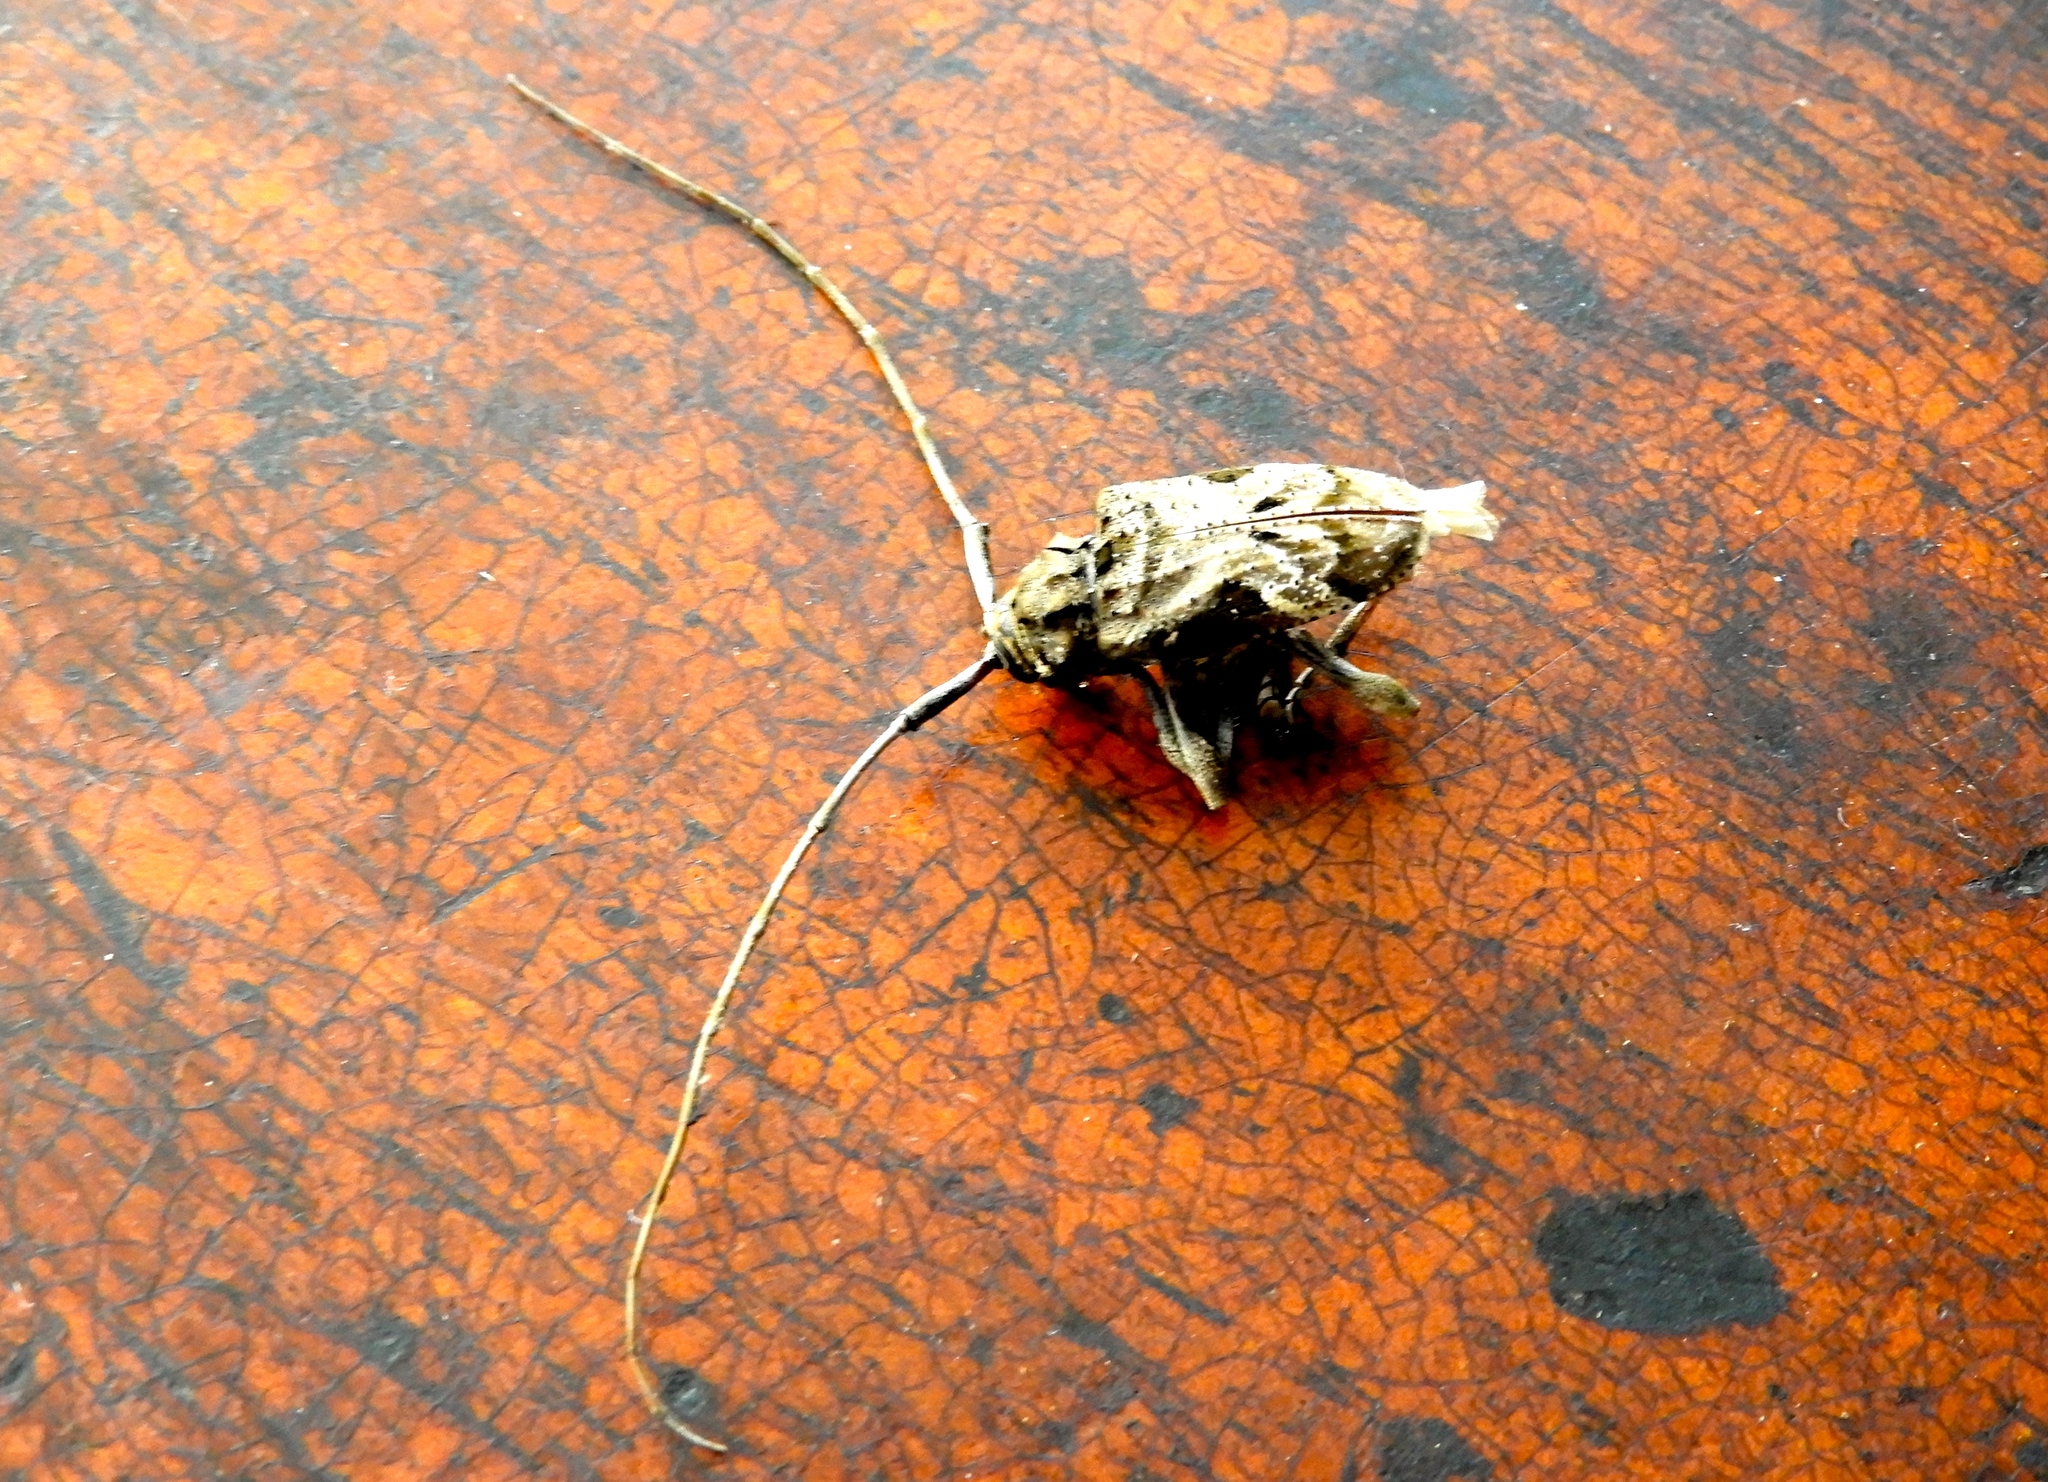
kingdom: Animalia
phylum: Arthropoda
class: Insecta
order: Coleoptera
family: Cerambycidae
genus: Lagocheirus
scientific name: Lagocheirus araneiformis
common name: Beetle
